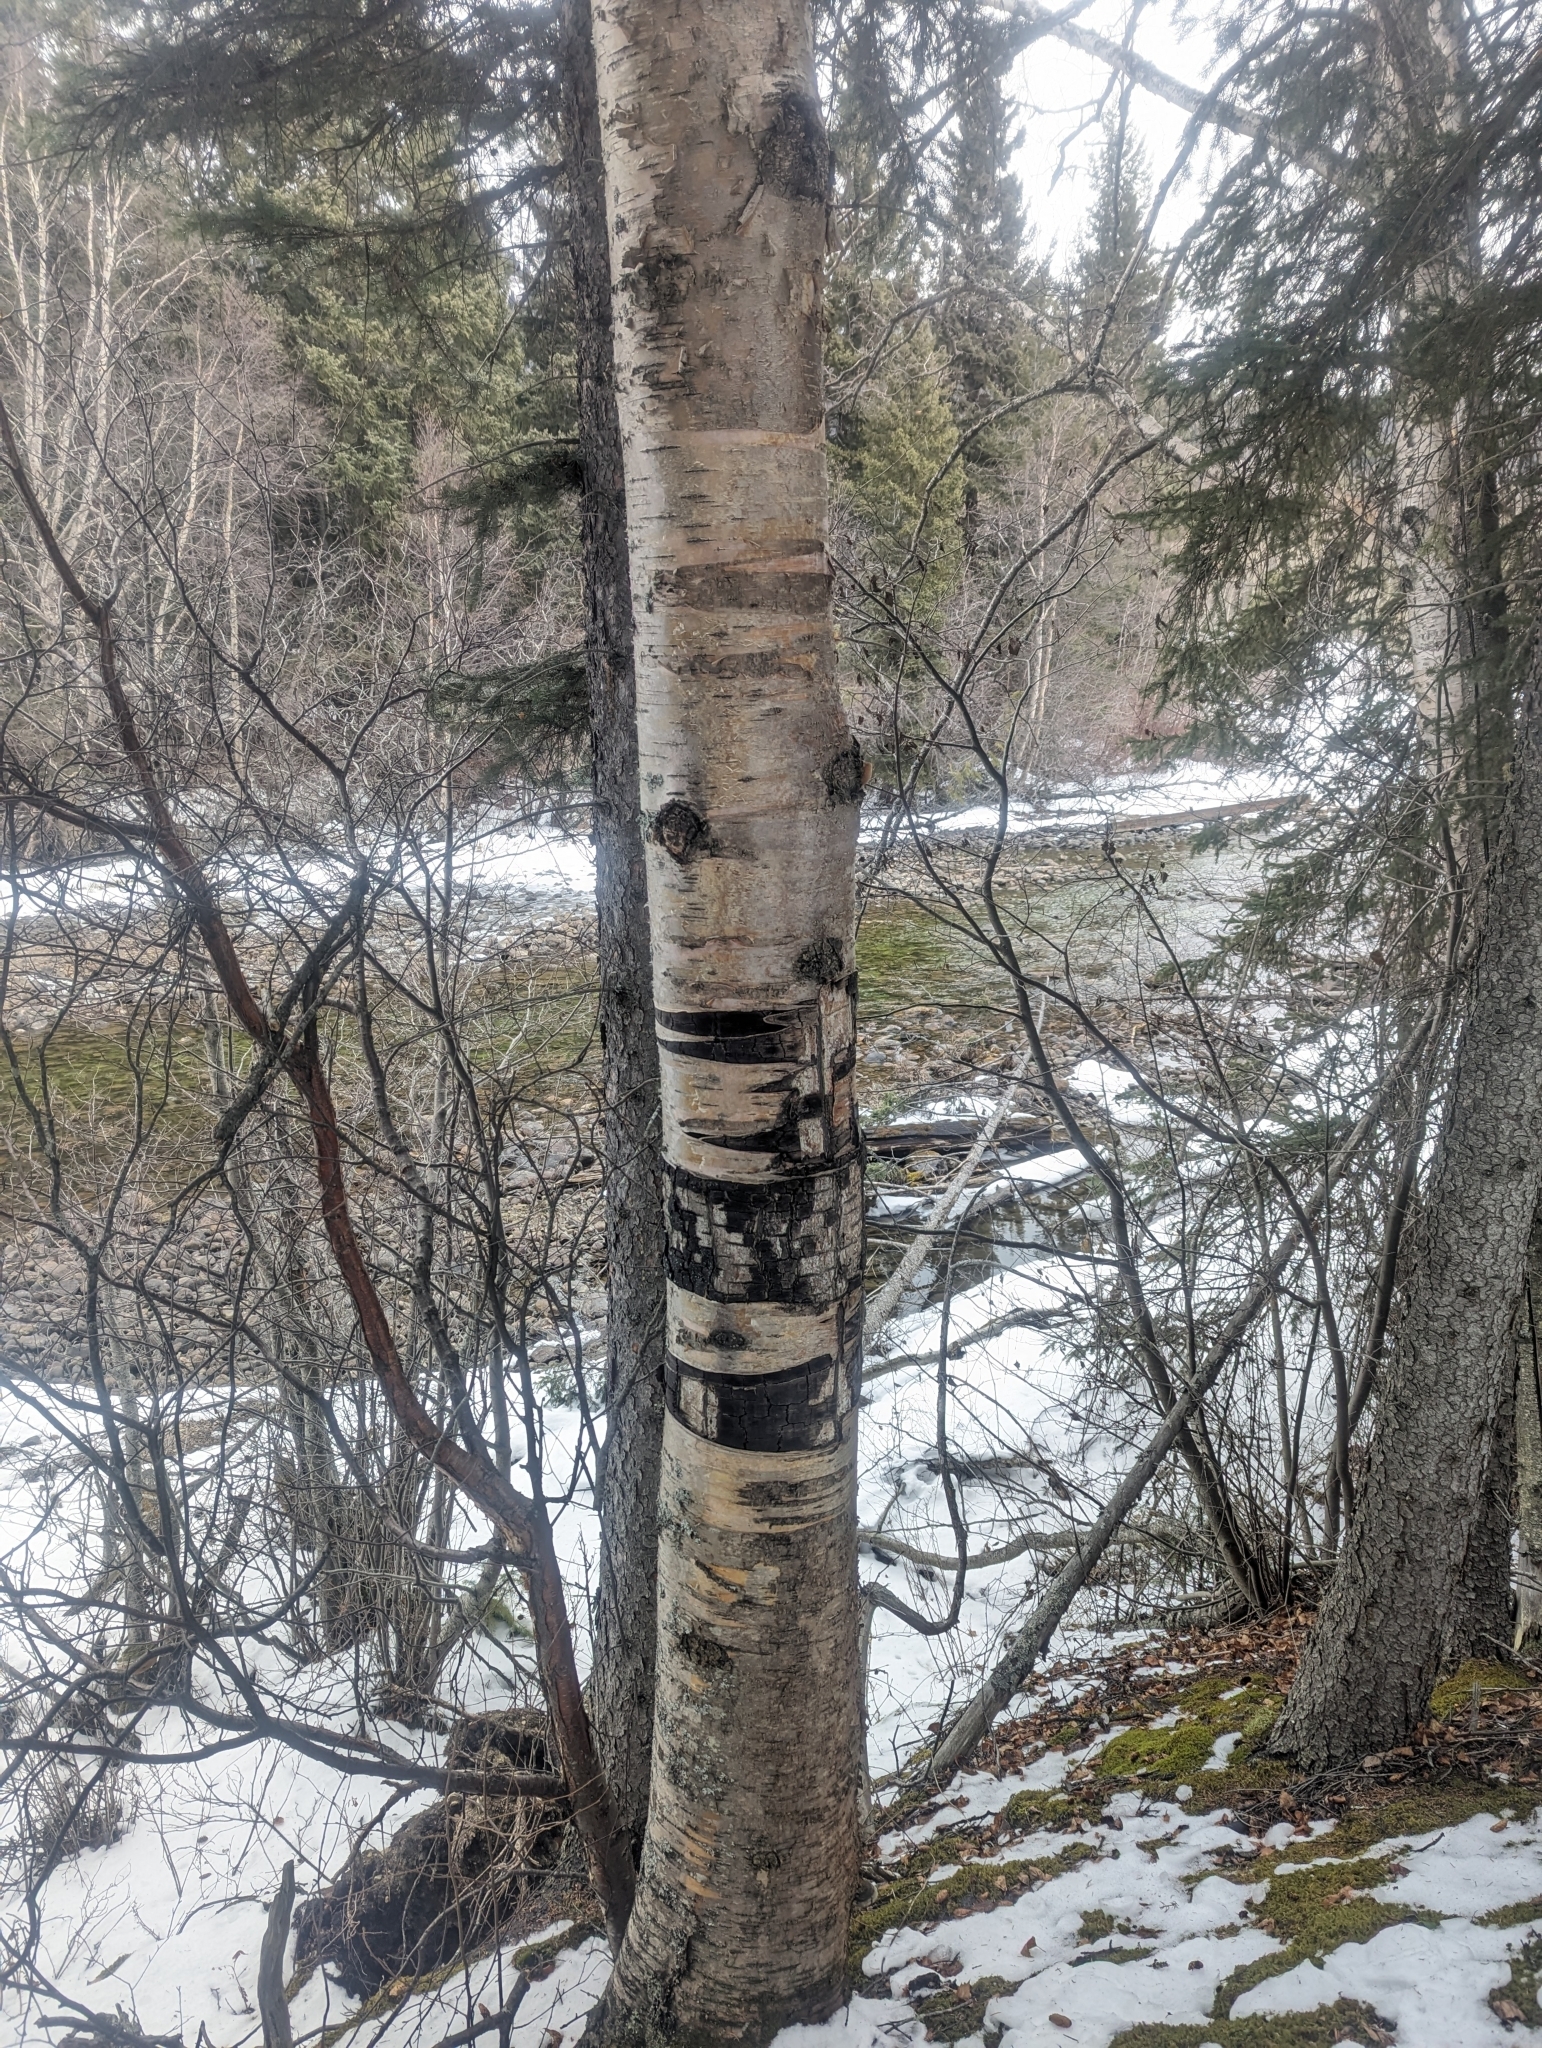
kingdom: Plantae
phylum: Tracheophyta
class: Magnoliopsida
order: Fagales
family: Betulaceae
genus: Betula
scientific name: Betula papyrifera
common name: Paper birch
